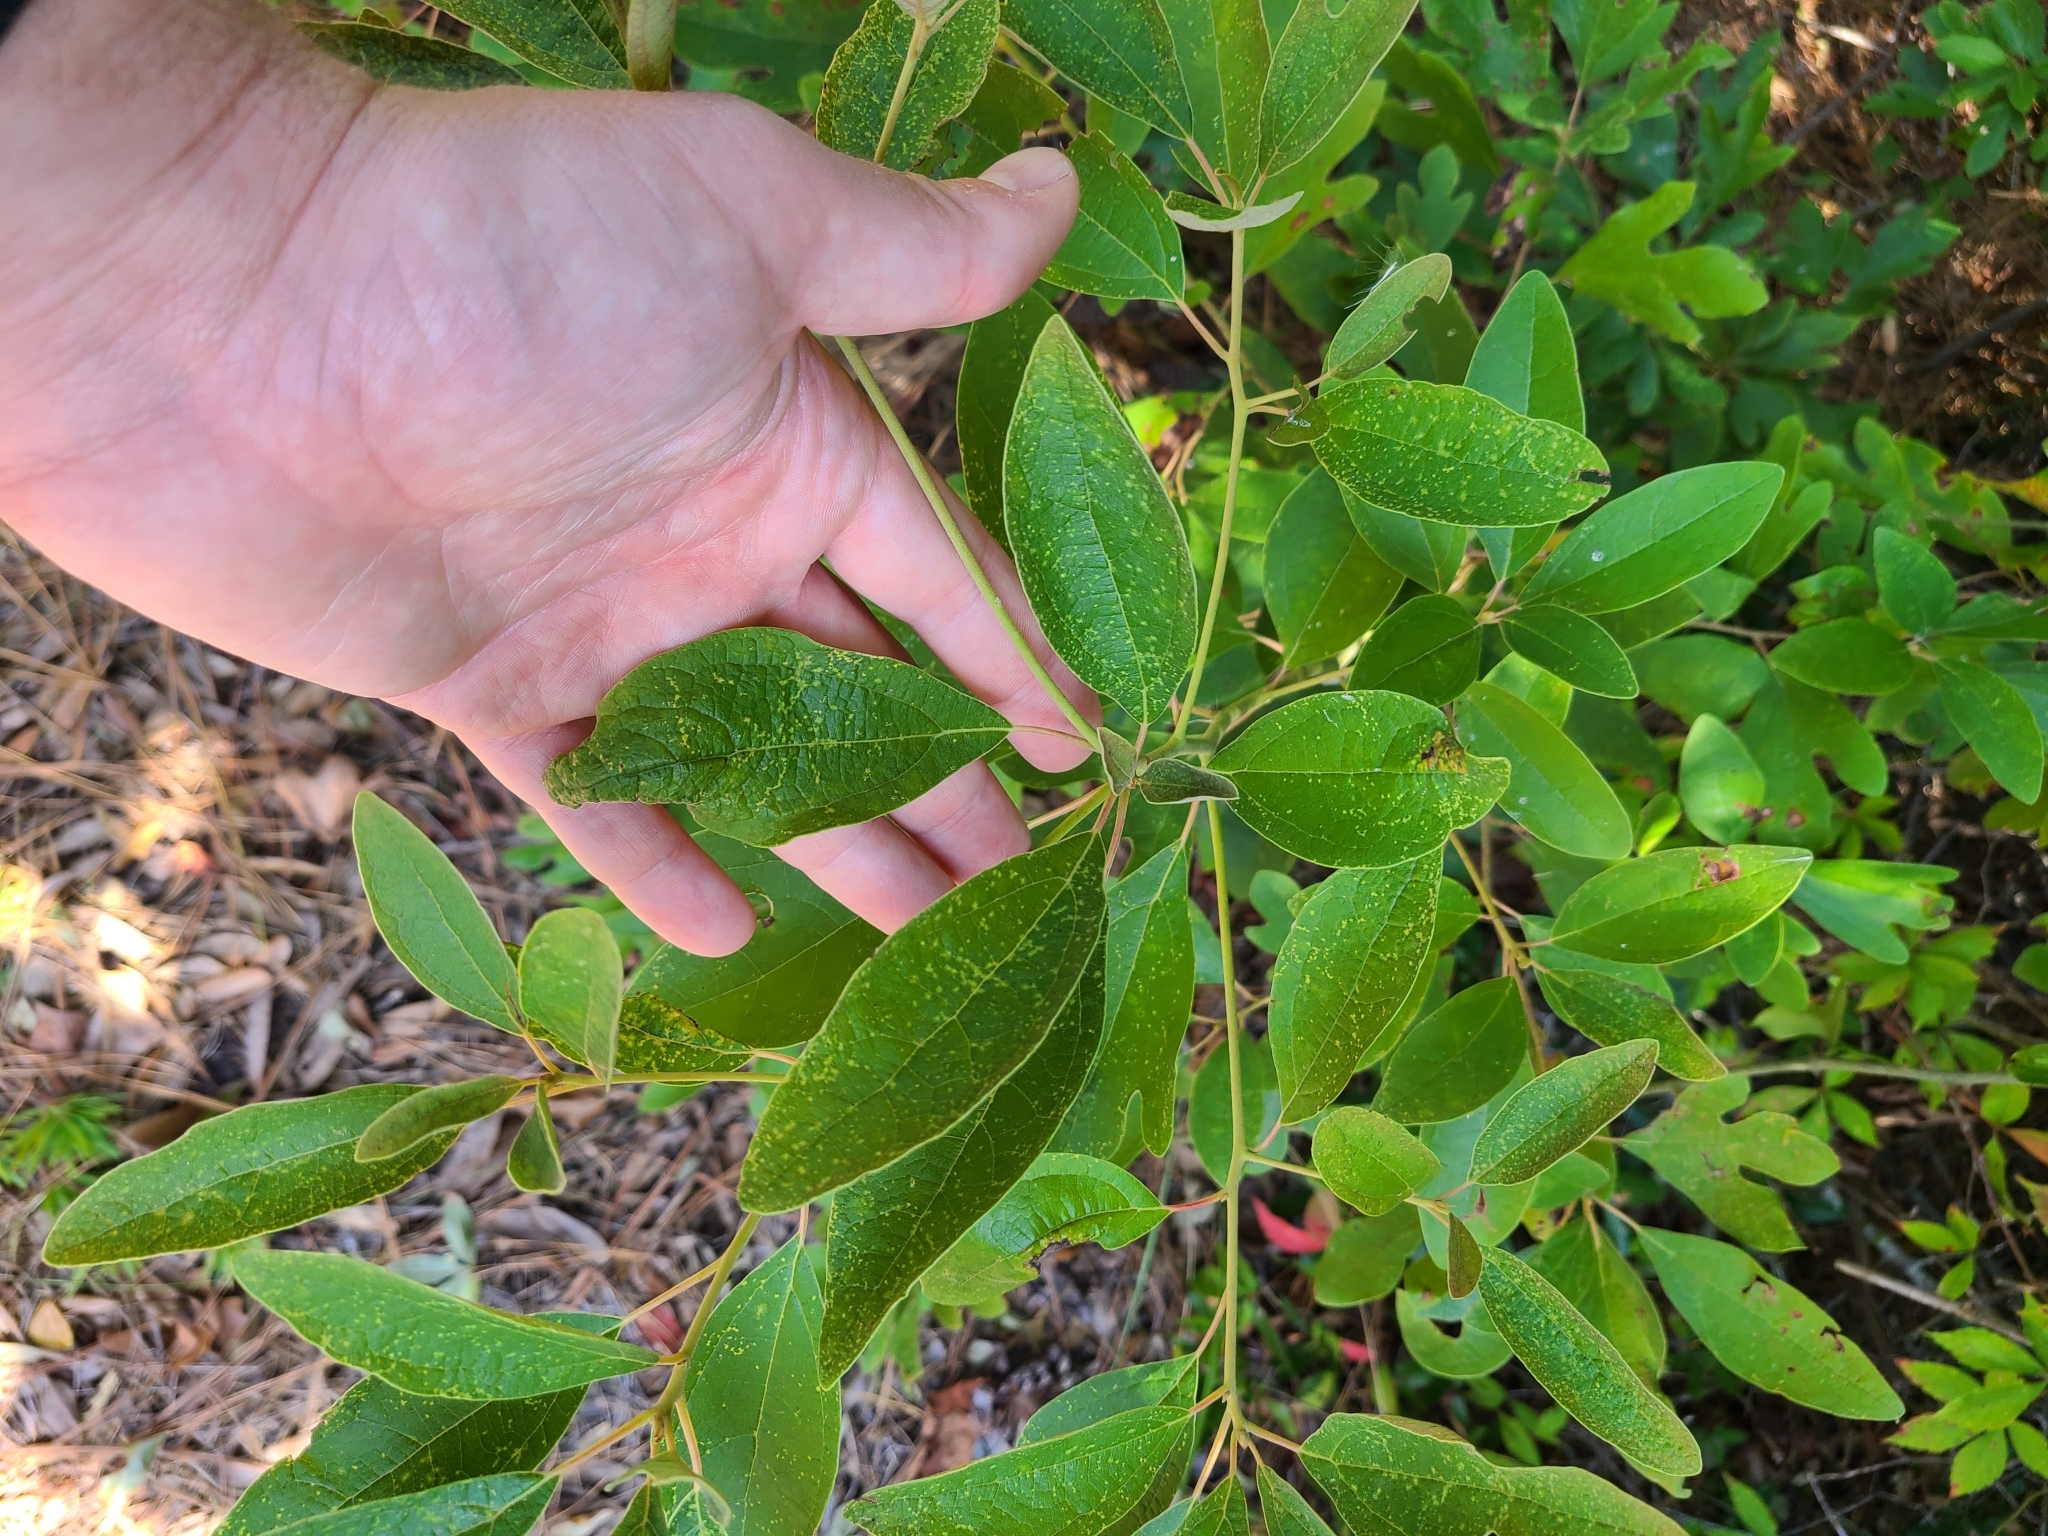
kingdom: Plantae
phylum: Tracheophyta
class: Magnoliopsida
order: Laurales
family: Lauraceae
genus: Sassafras
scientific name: Sassafras albidum
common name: Sassafras
